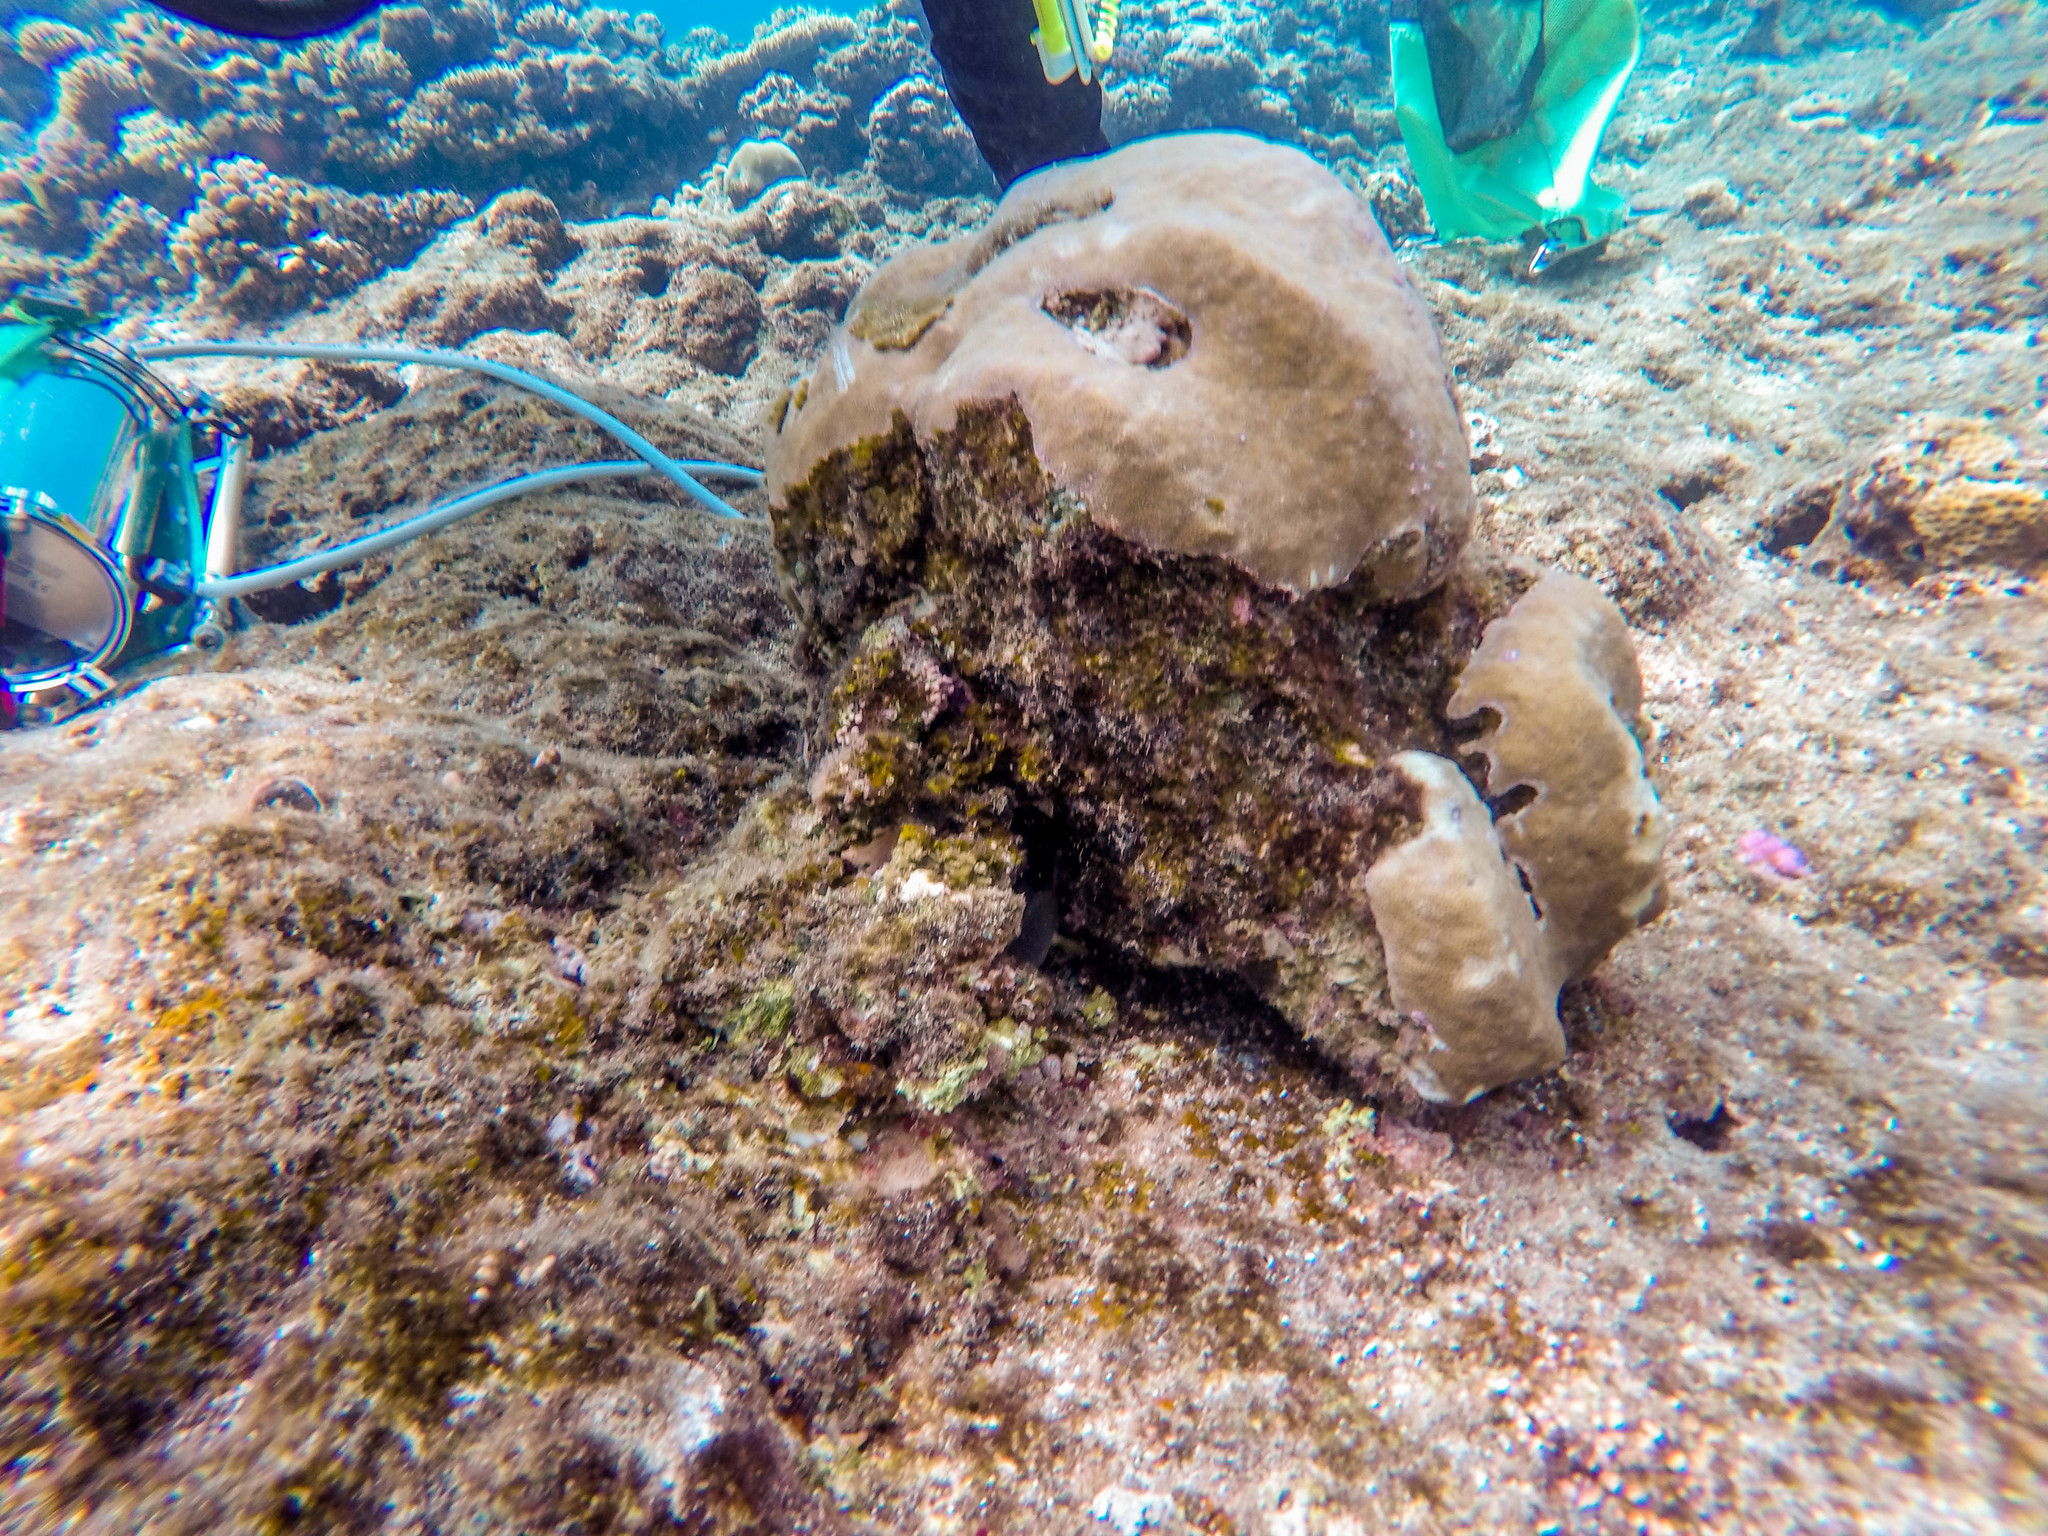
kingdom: Animalia
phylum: Cnidaria
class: Anthozoa
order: Scleractinia
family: Poritidae
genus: Porites
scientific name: Porites lobata
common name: Hump coral
